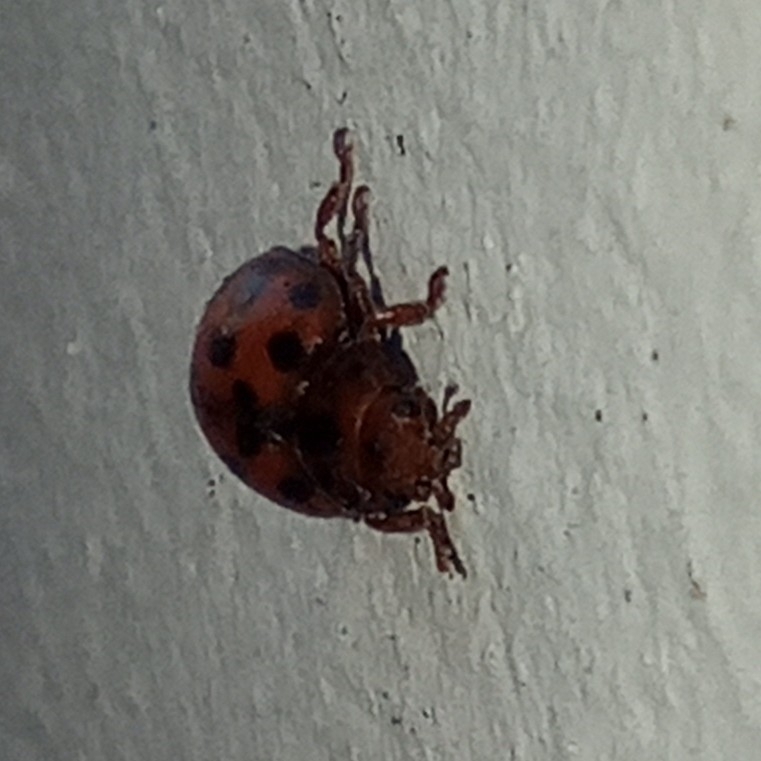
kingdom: Animalia
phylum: Arthropoda
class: Insecta
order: Coleoptera
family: Coccinellidae
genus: Subcoccinella
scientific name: Subcoccinella vigintiquatuorpunctata
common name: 24-spot ladybird
